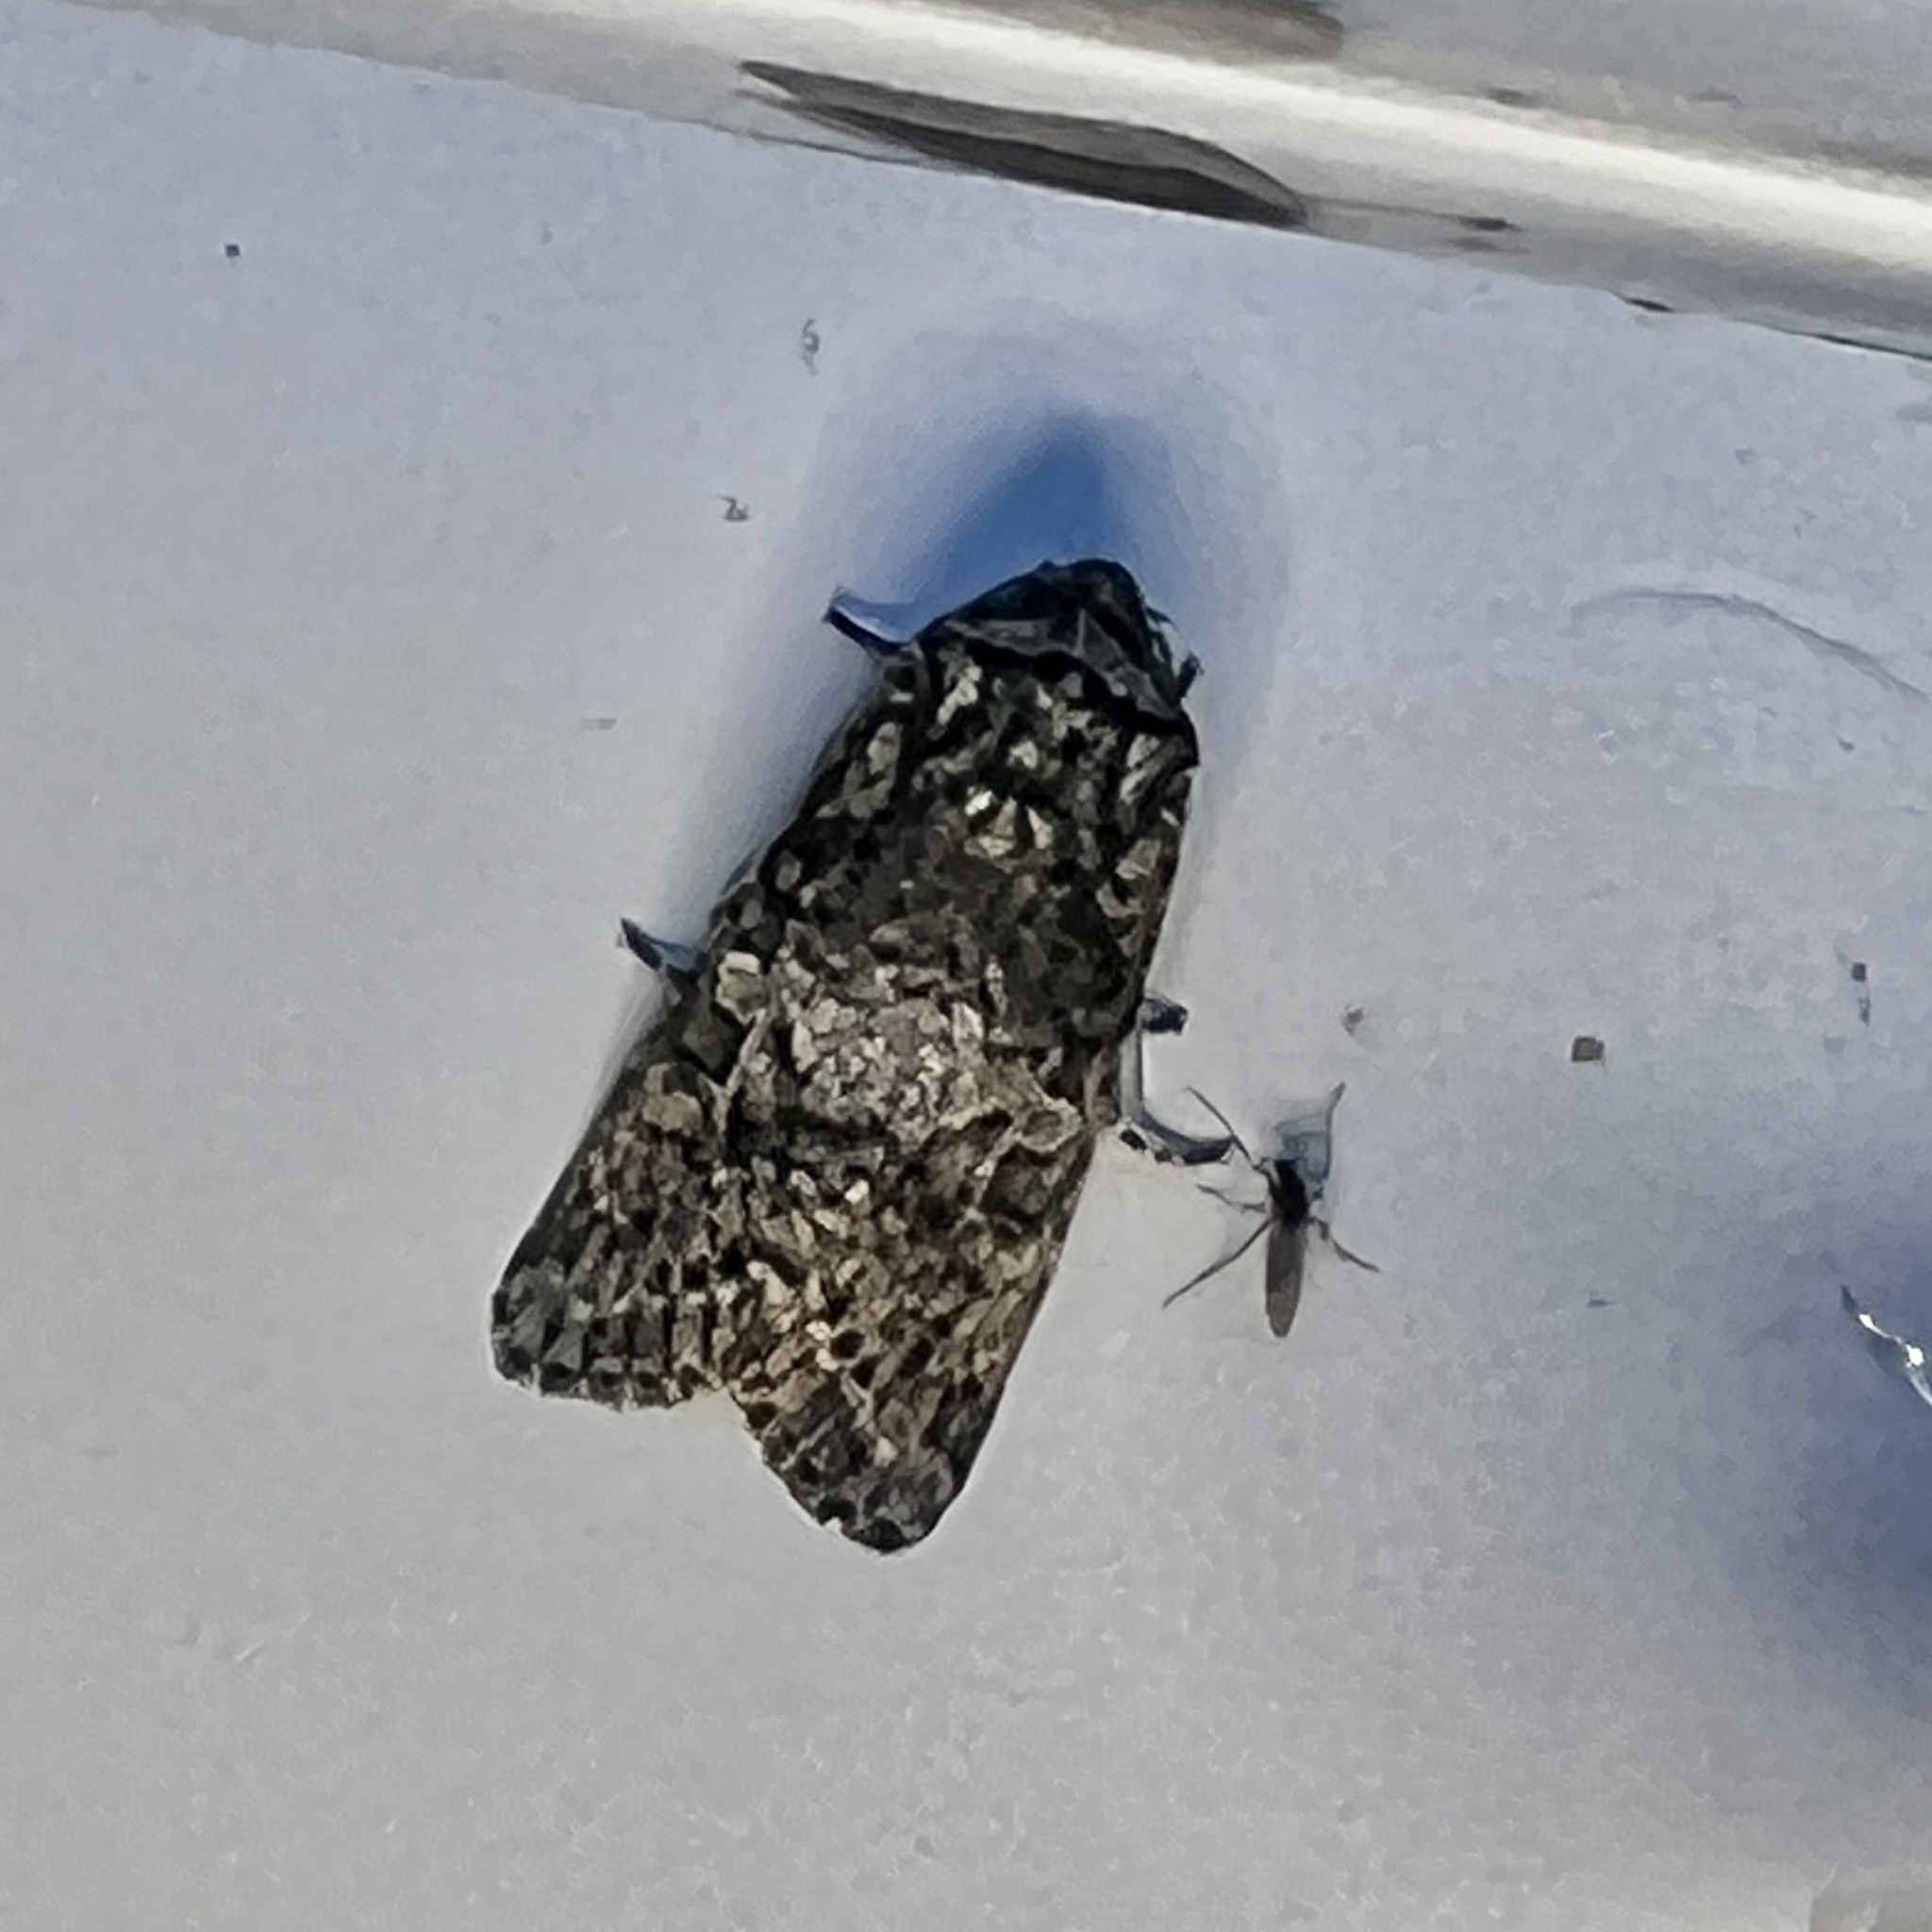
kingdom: Animalia
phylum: Arthropoda
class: Insecta
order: Lepidoptera
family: Noctuidae
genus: Egira
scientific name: Egira dolosa
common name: Lined black aspen cat.
